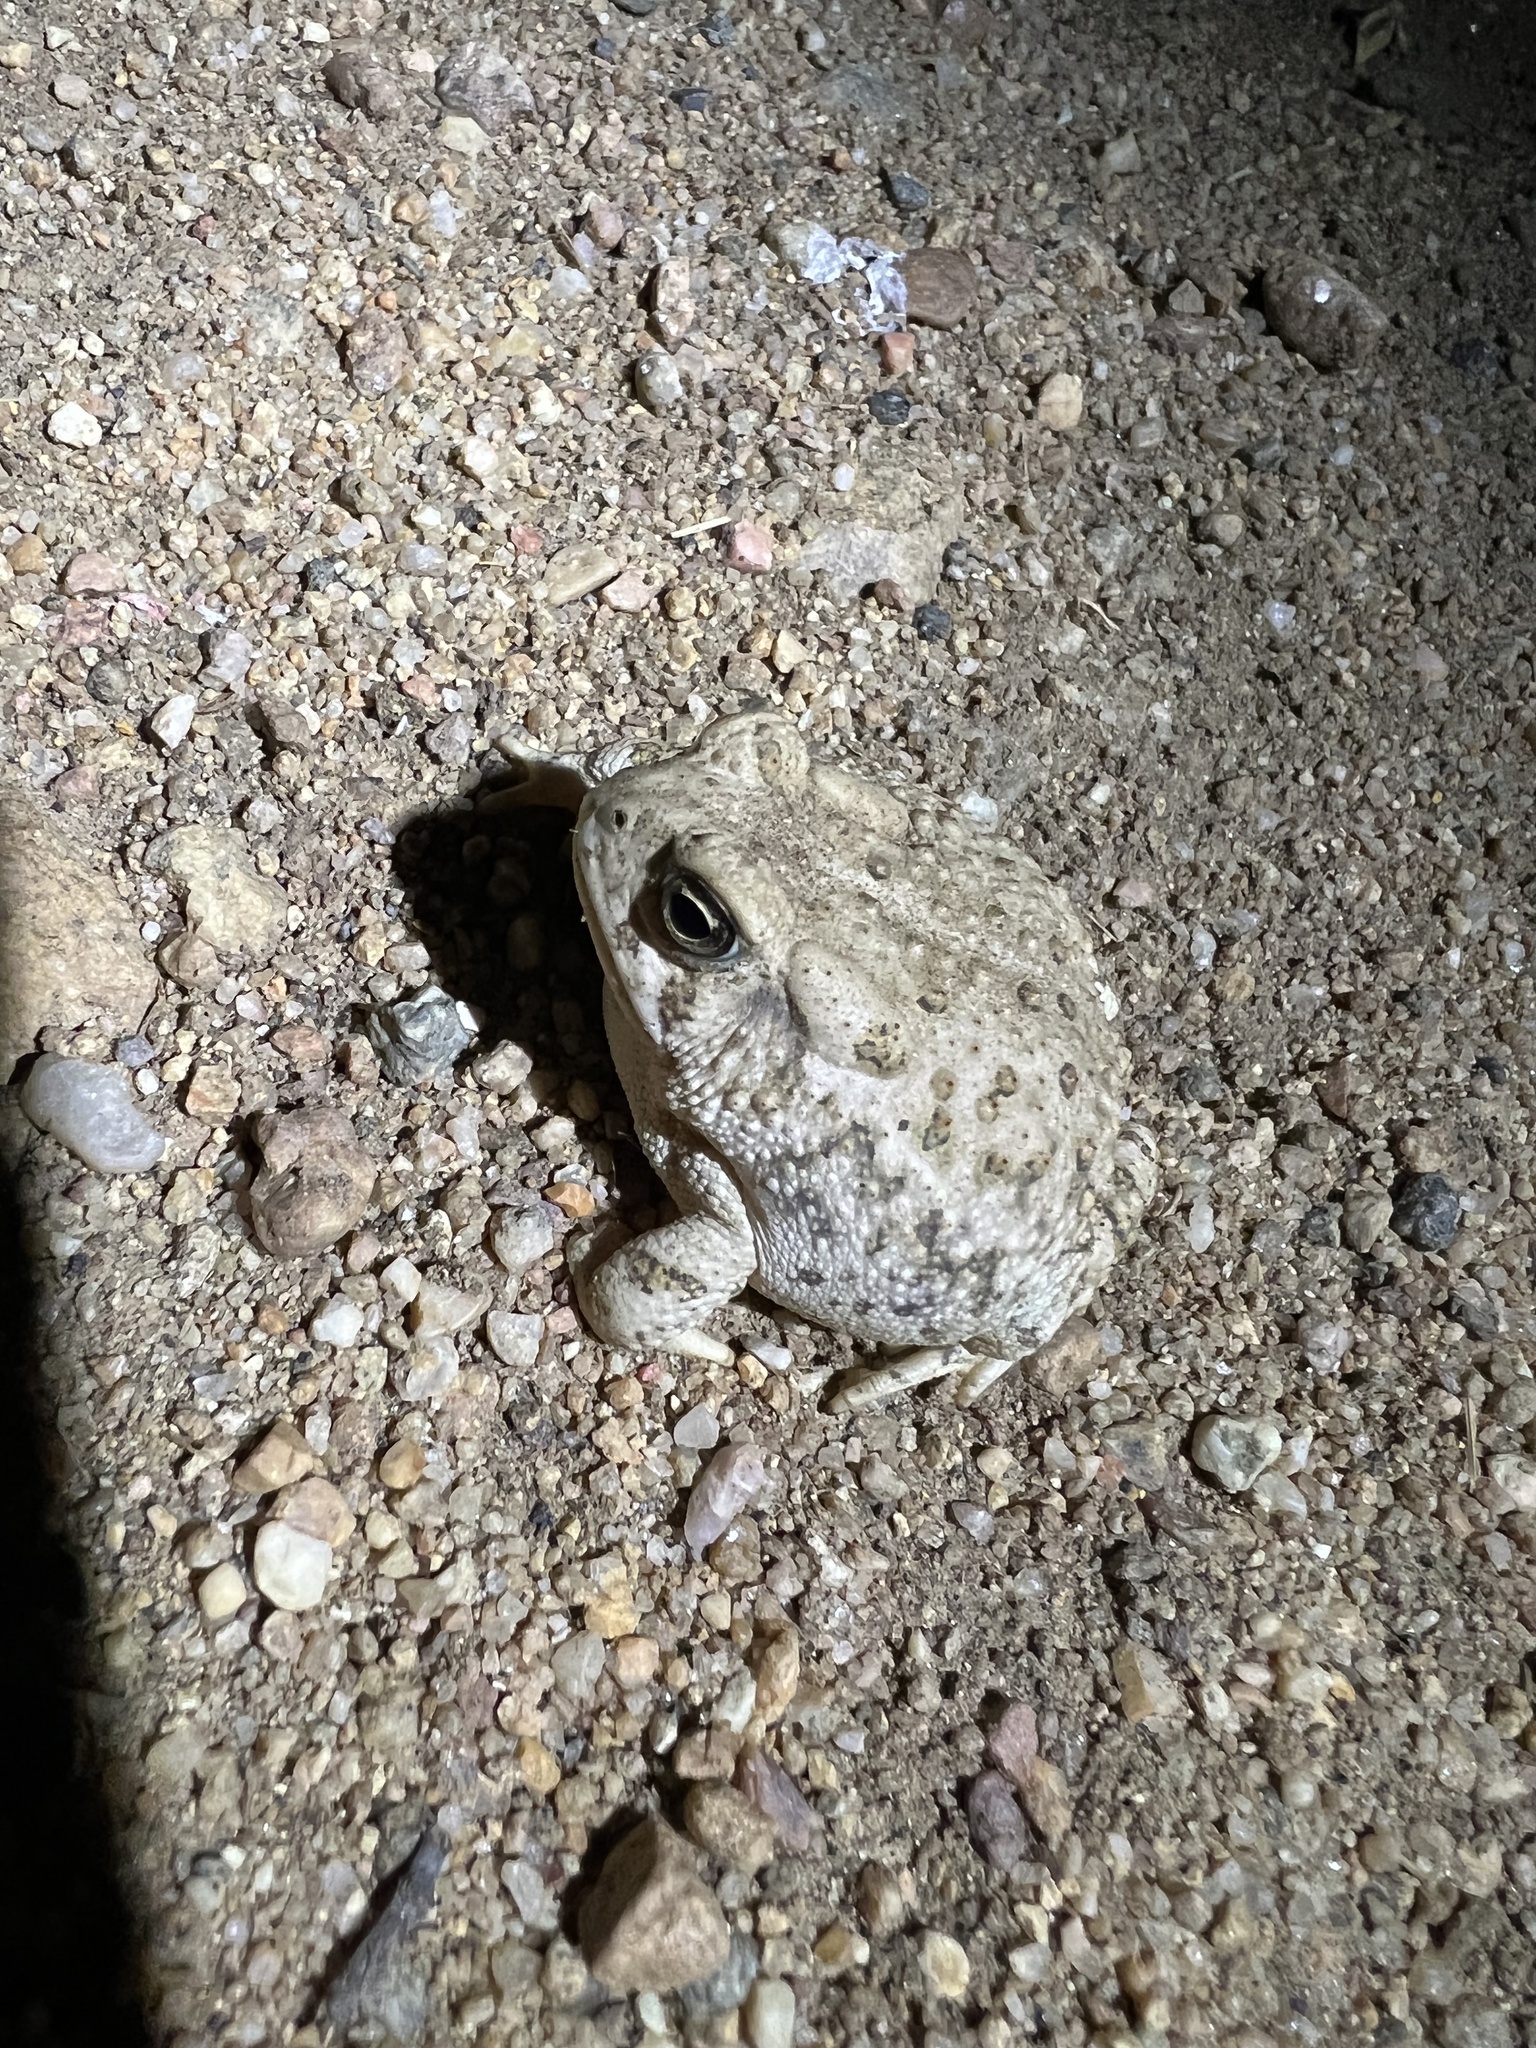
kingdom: Animalia
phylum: Chordata
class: Amphibia
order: Anura
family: Bufonidae
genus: Anaxyrus
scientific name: Anaxyrus woodhousii
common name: Woodhouse's toad
